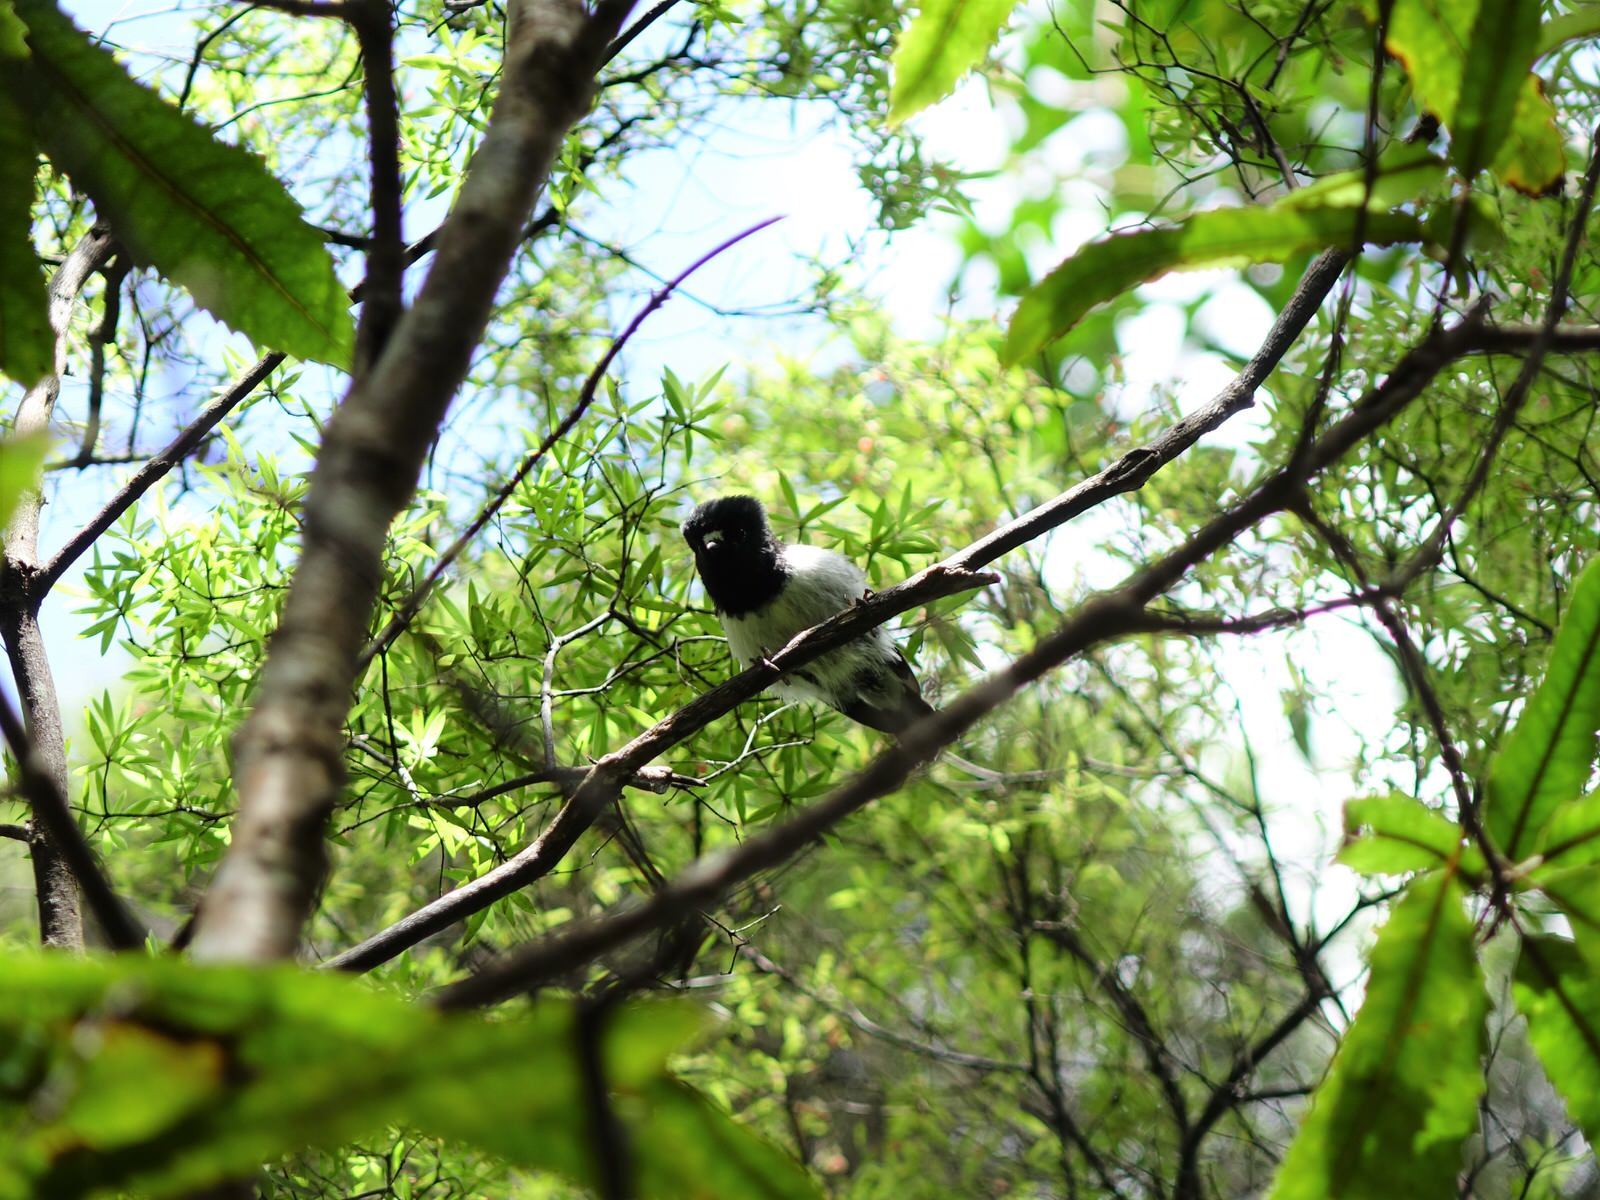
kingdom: Animalia
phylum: Chordata
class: Aves
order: Passeriformes
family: Petroicidae
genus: Petroica
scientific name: Petroica macrocephala
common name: Tomtit
